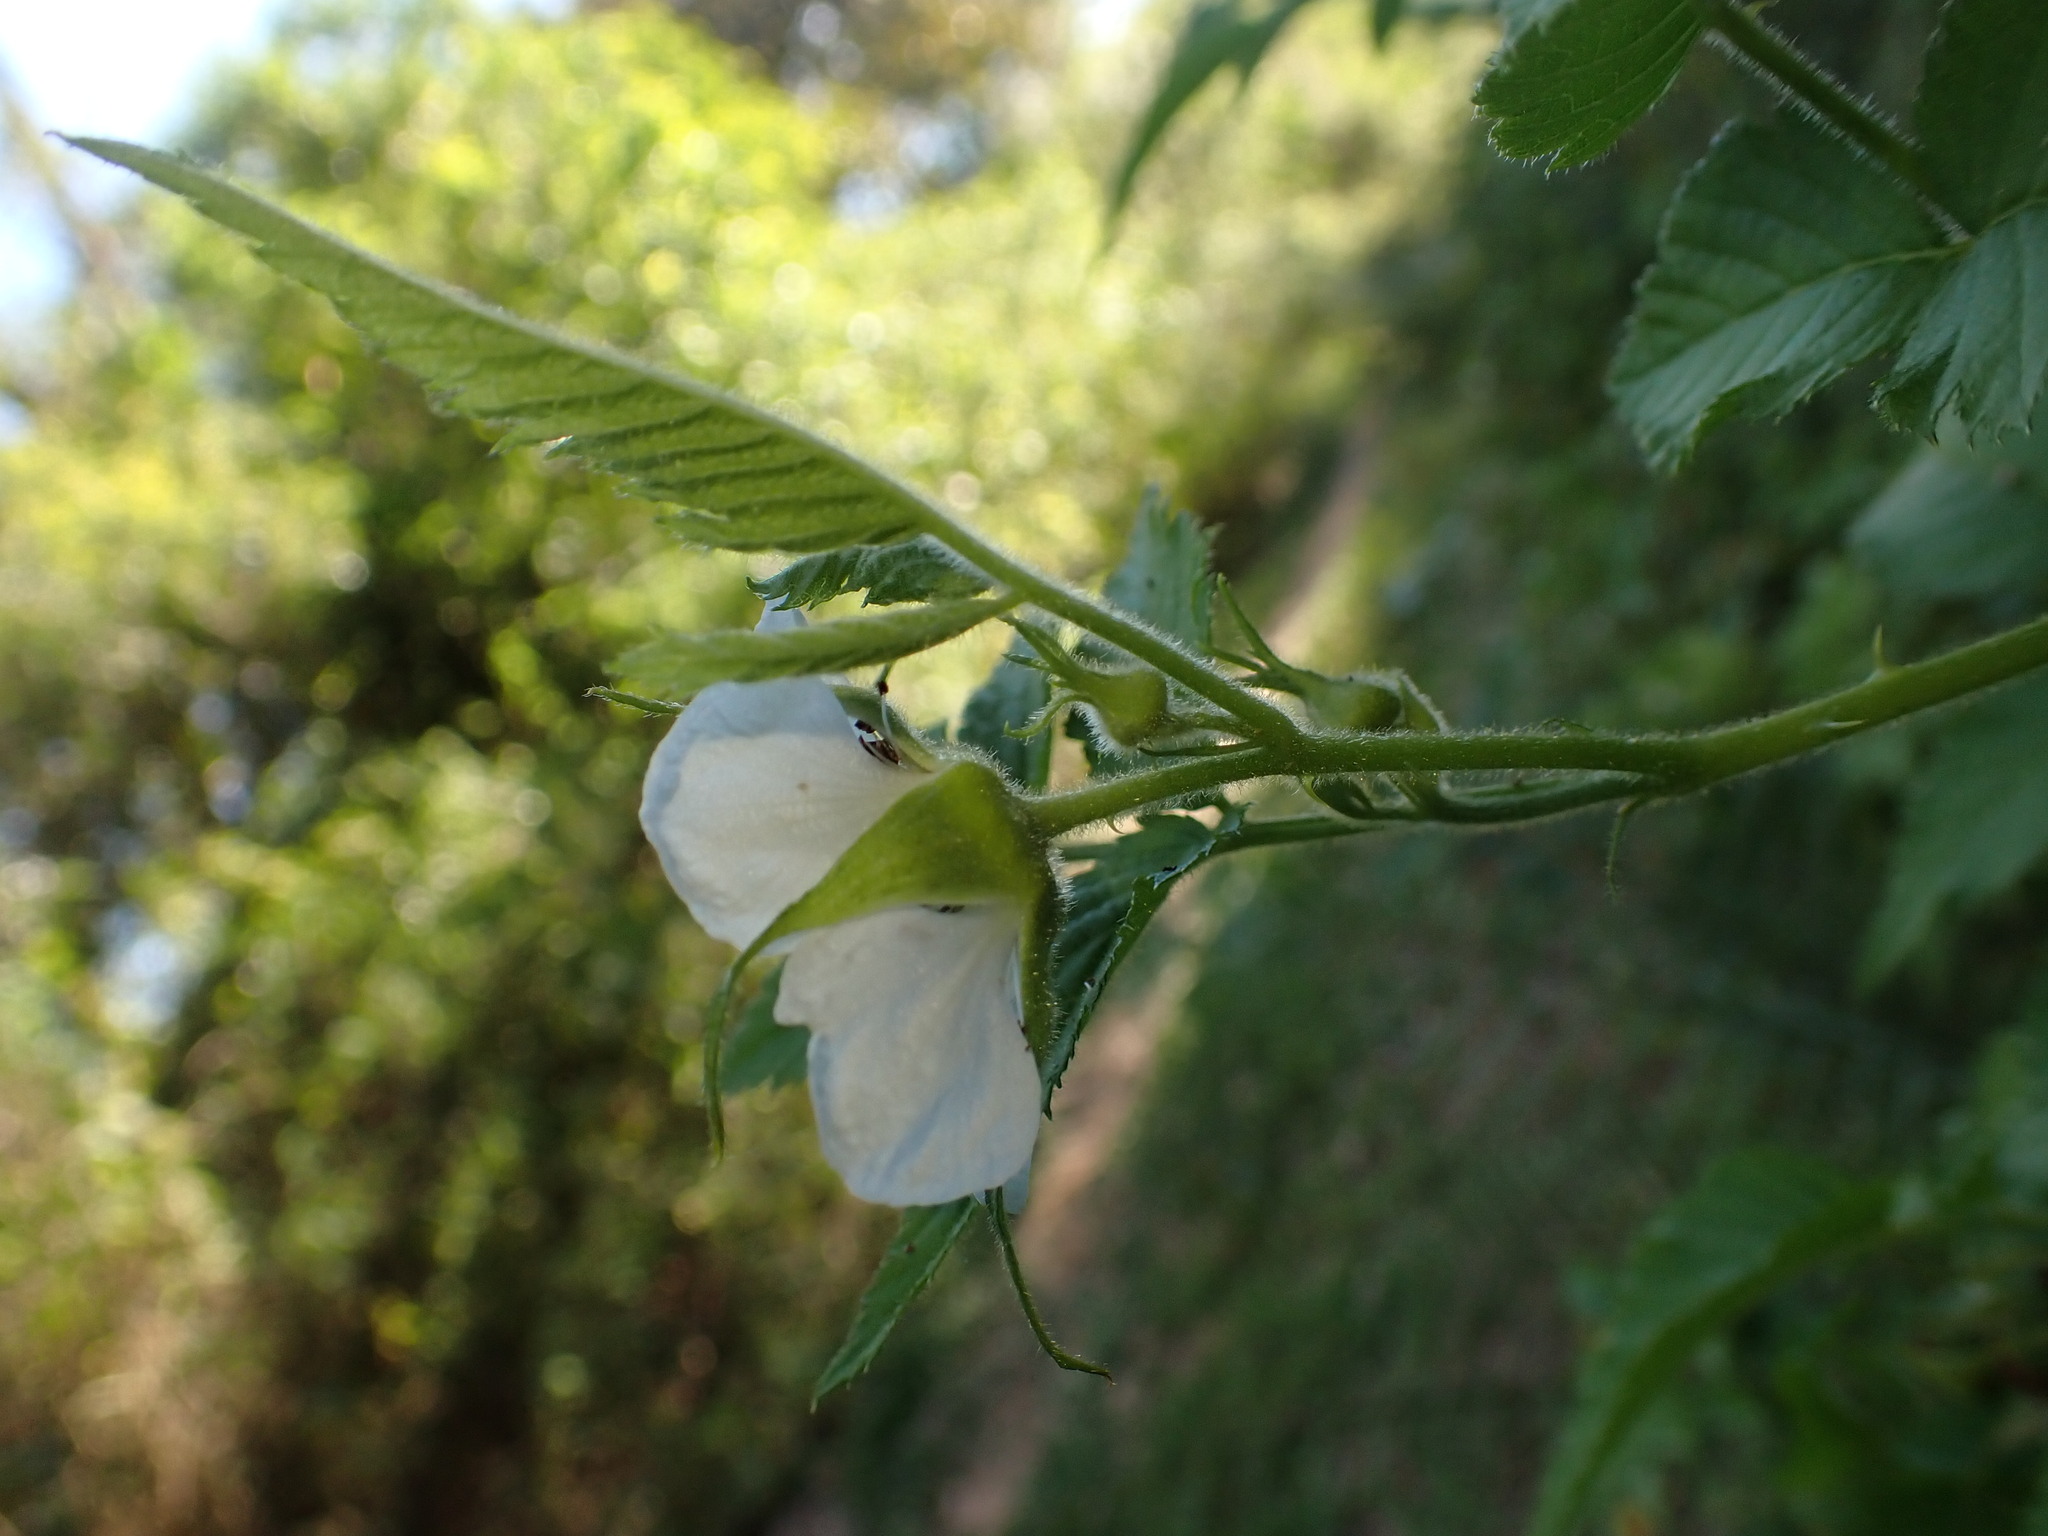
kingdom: Plantae
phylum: Tracheophyta
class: Magnoliopsida
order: Rosales
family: Rosaceae
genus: Rubus
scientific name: Rubus rosifolius
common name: Roseleaf raspberry
